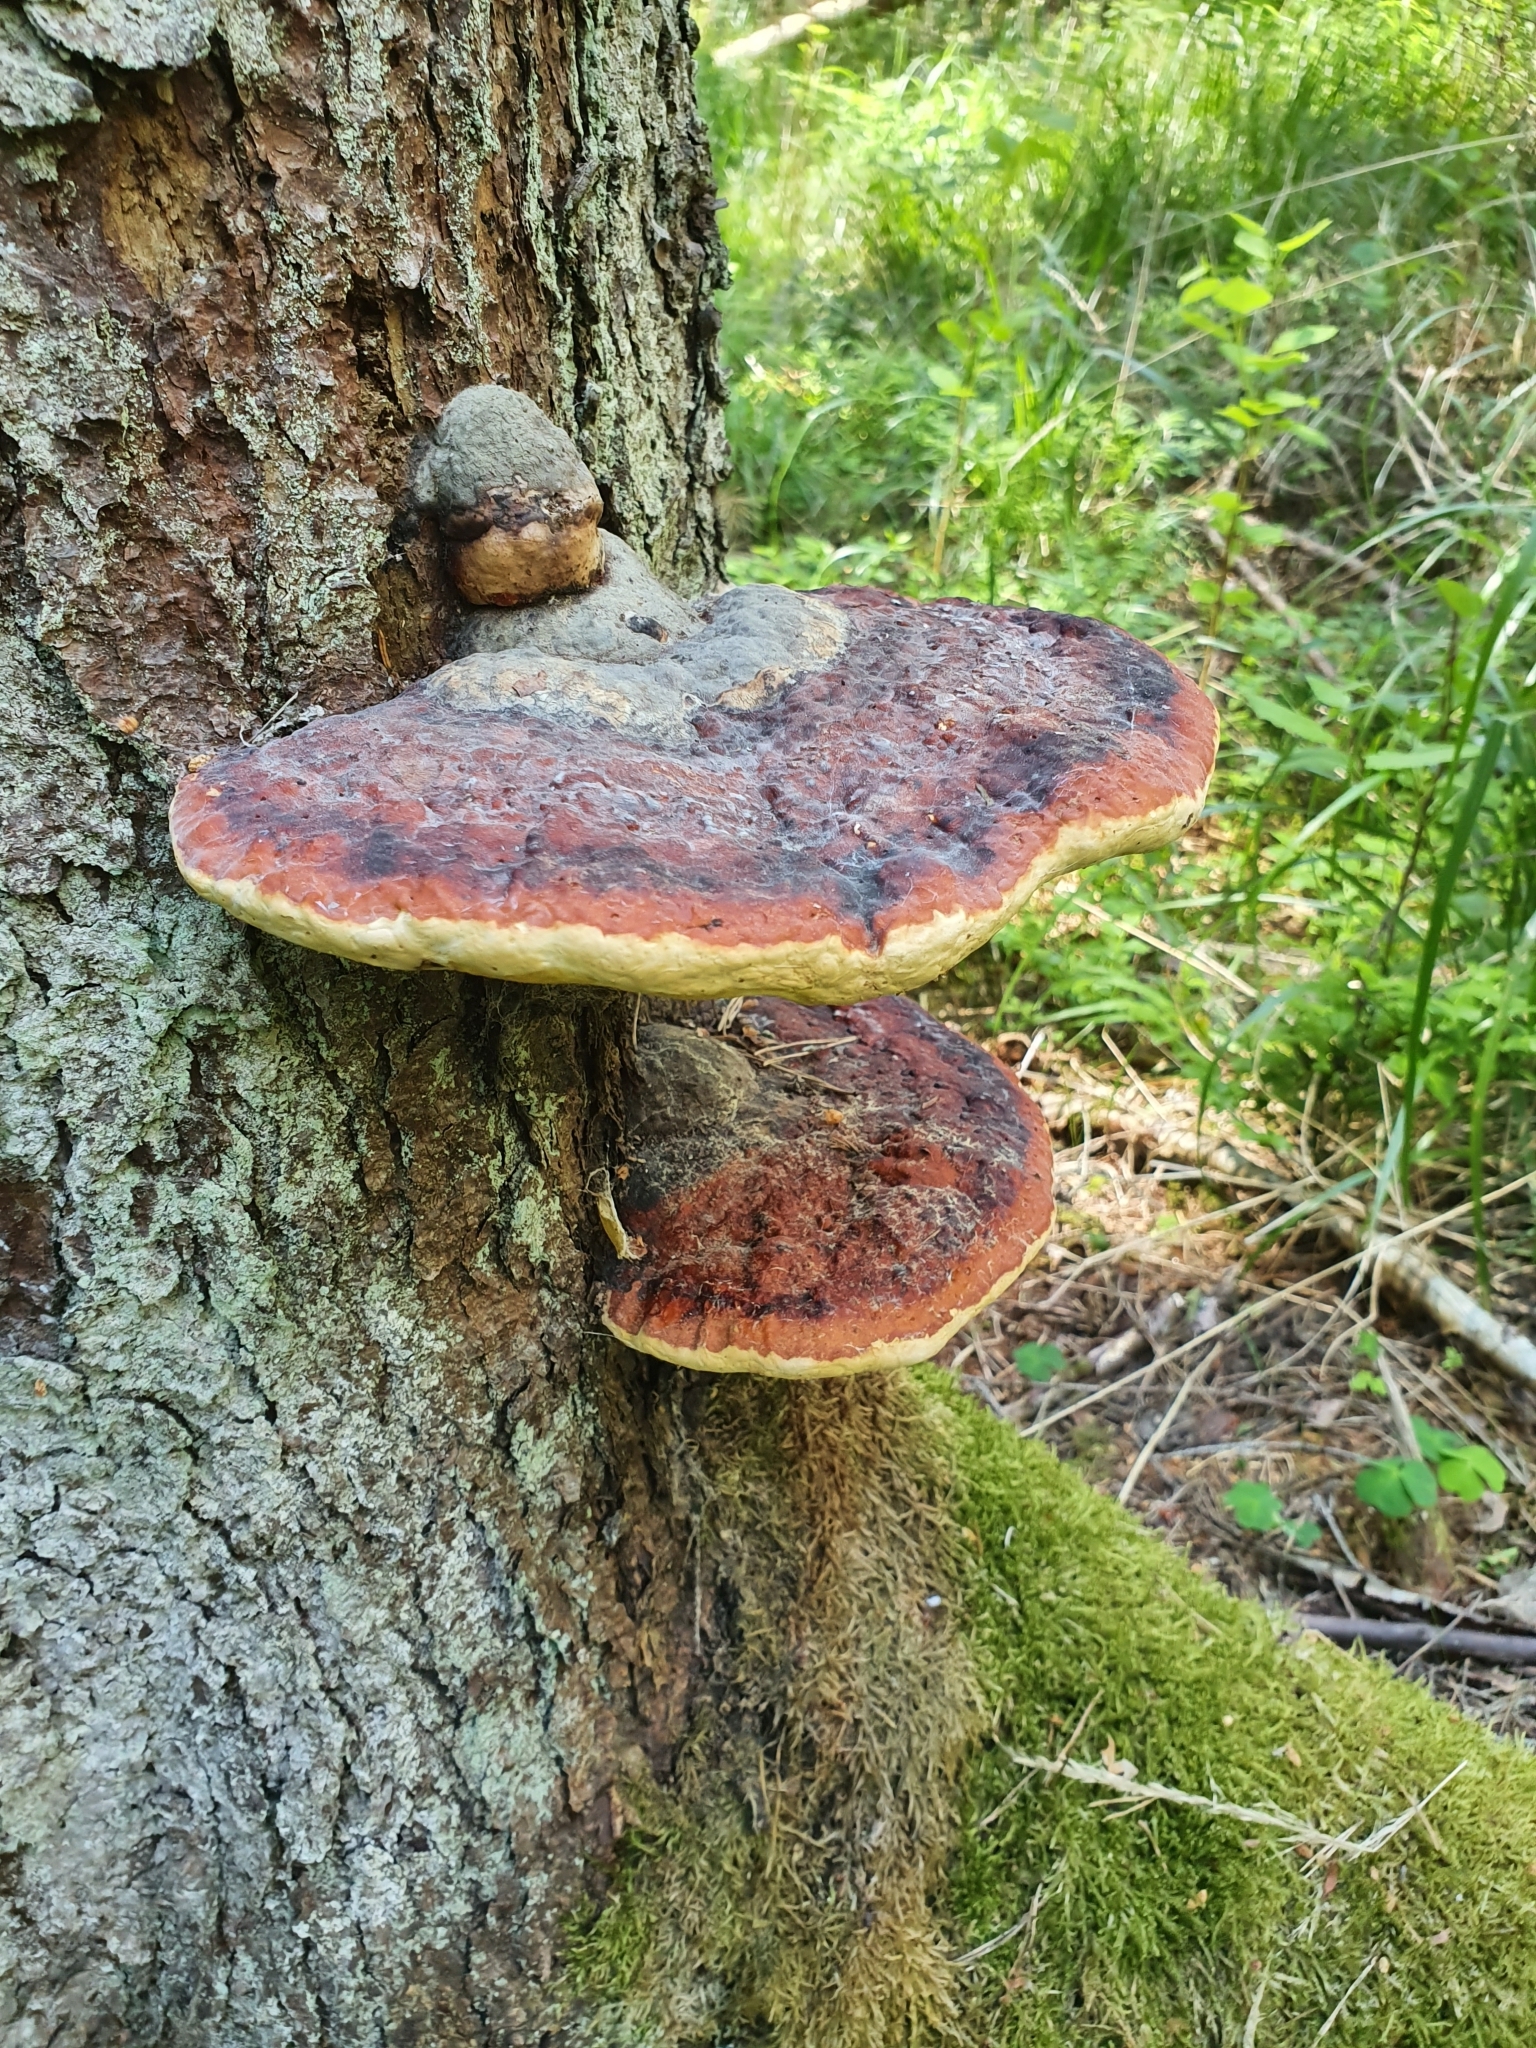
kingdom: Fungi
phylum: Basidiomycota
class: Agaricomycetes
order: Polyporales
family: Fomitopsidaceae
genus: Fomitopsis
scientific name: Fomitopsis pinicola
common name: Red-belted bracket
